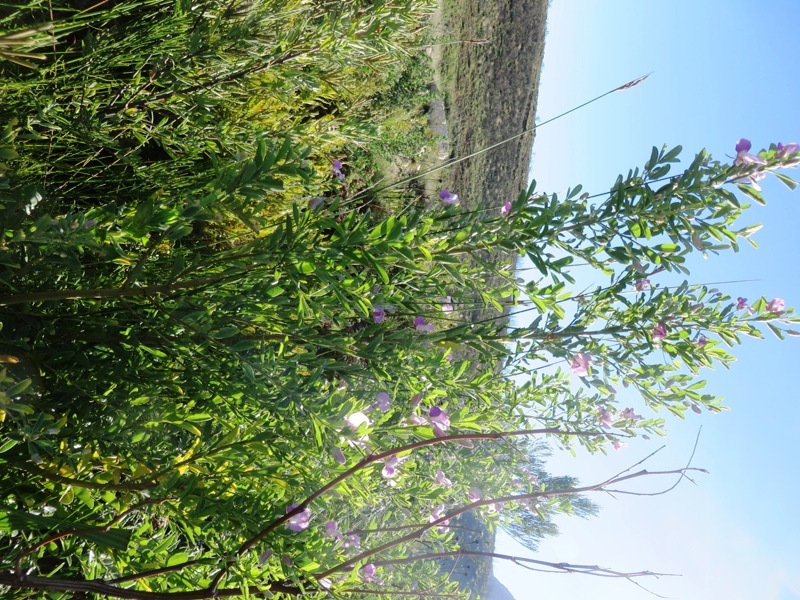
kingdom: Plantae
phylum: Tracheophyta
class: Magnoliopsida
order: Fabales
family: Fabaceae
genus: Podalyria
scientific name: Podalyria calyptrata
